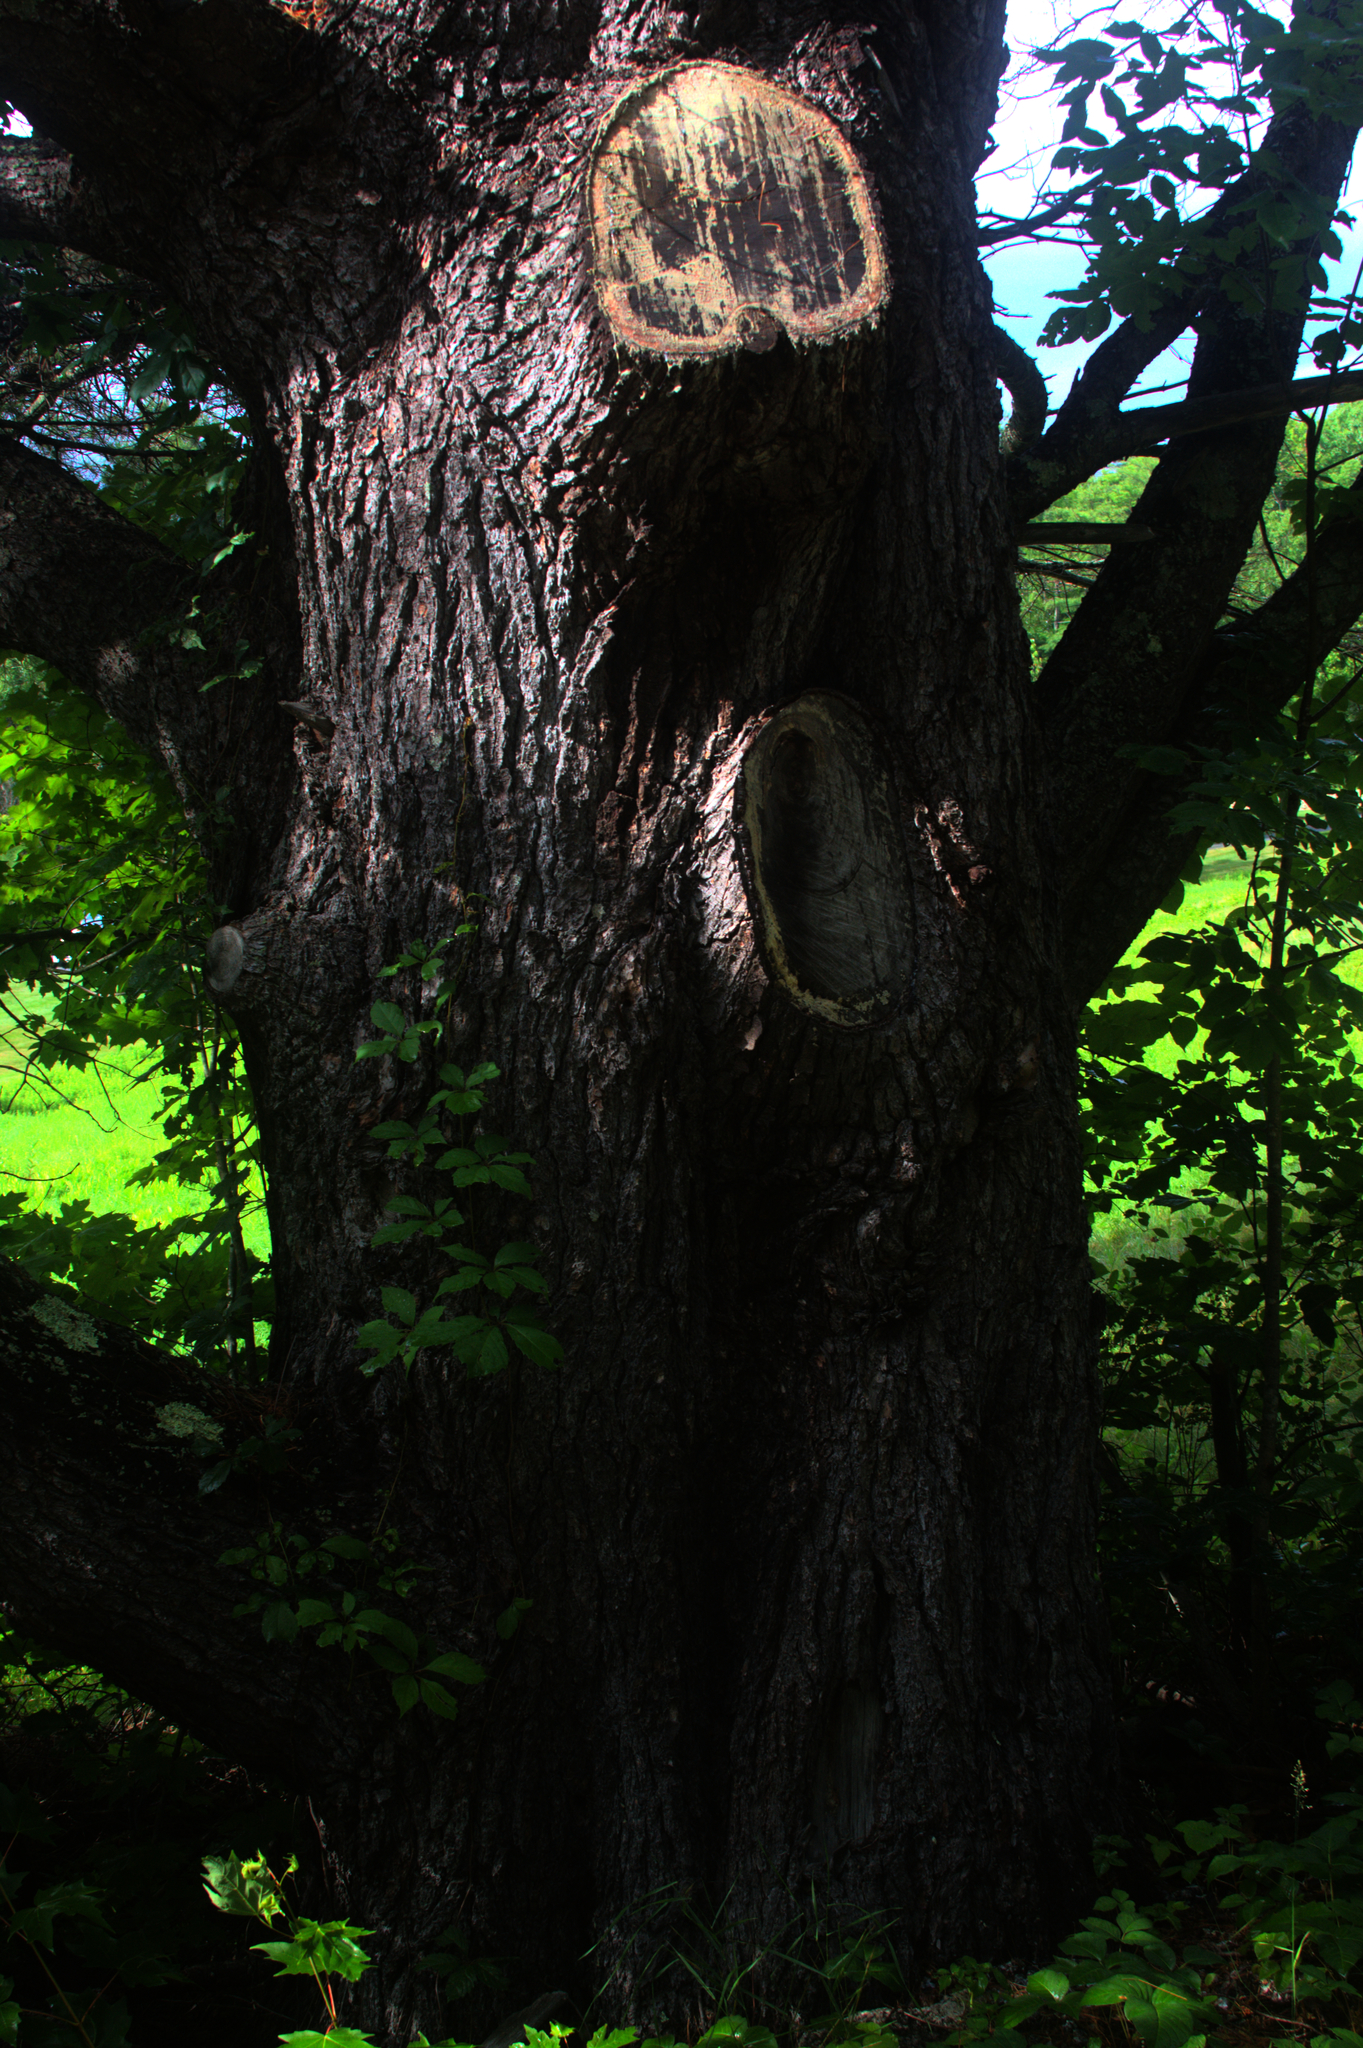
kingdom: Plantae
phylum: Tracheophyta
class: Pinopsida
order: Pinales
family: Pinaceae
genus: Pinus
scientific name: Pinus strobus
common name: Weymouth pine
